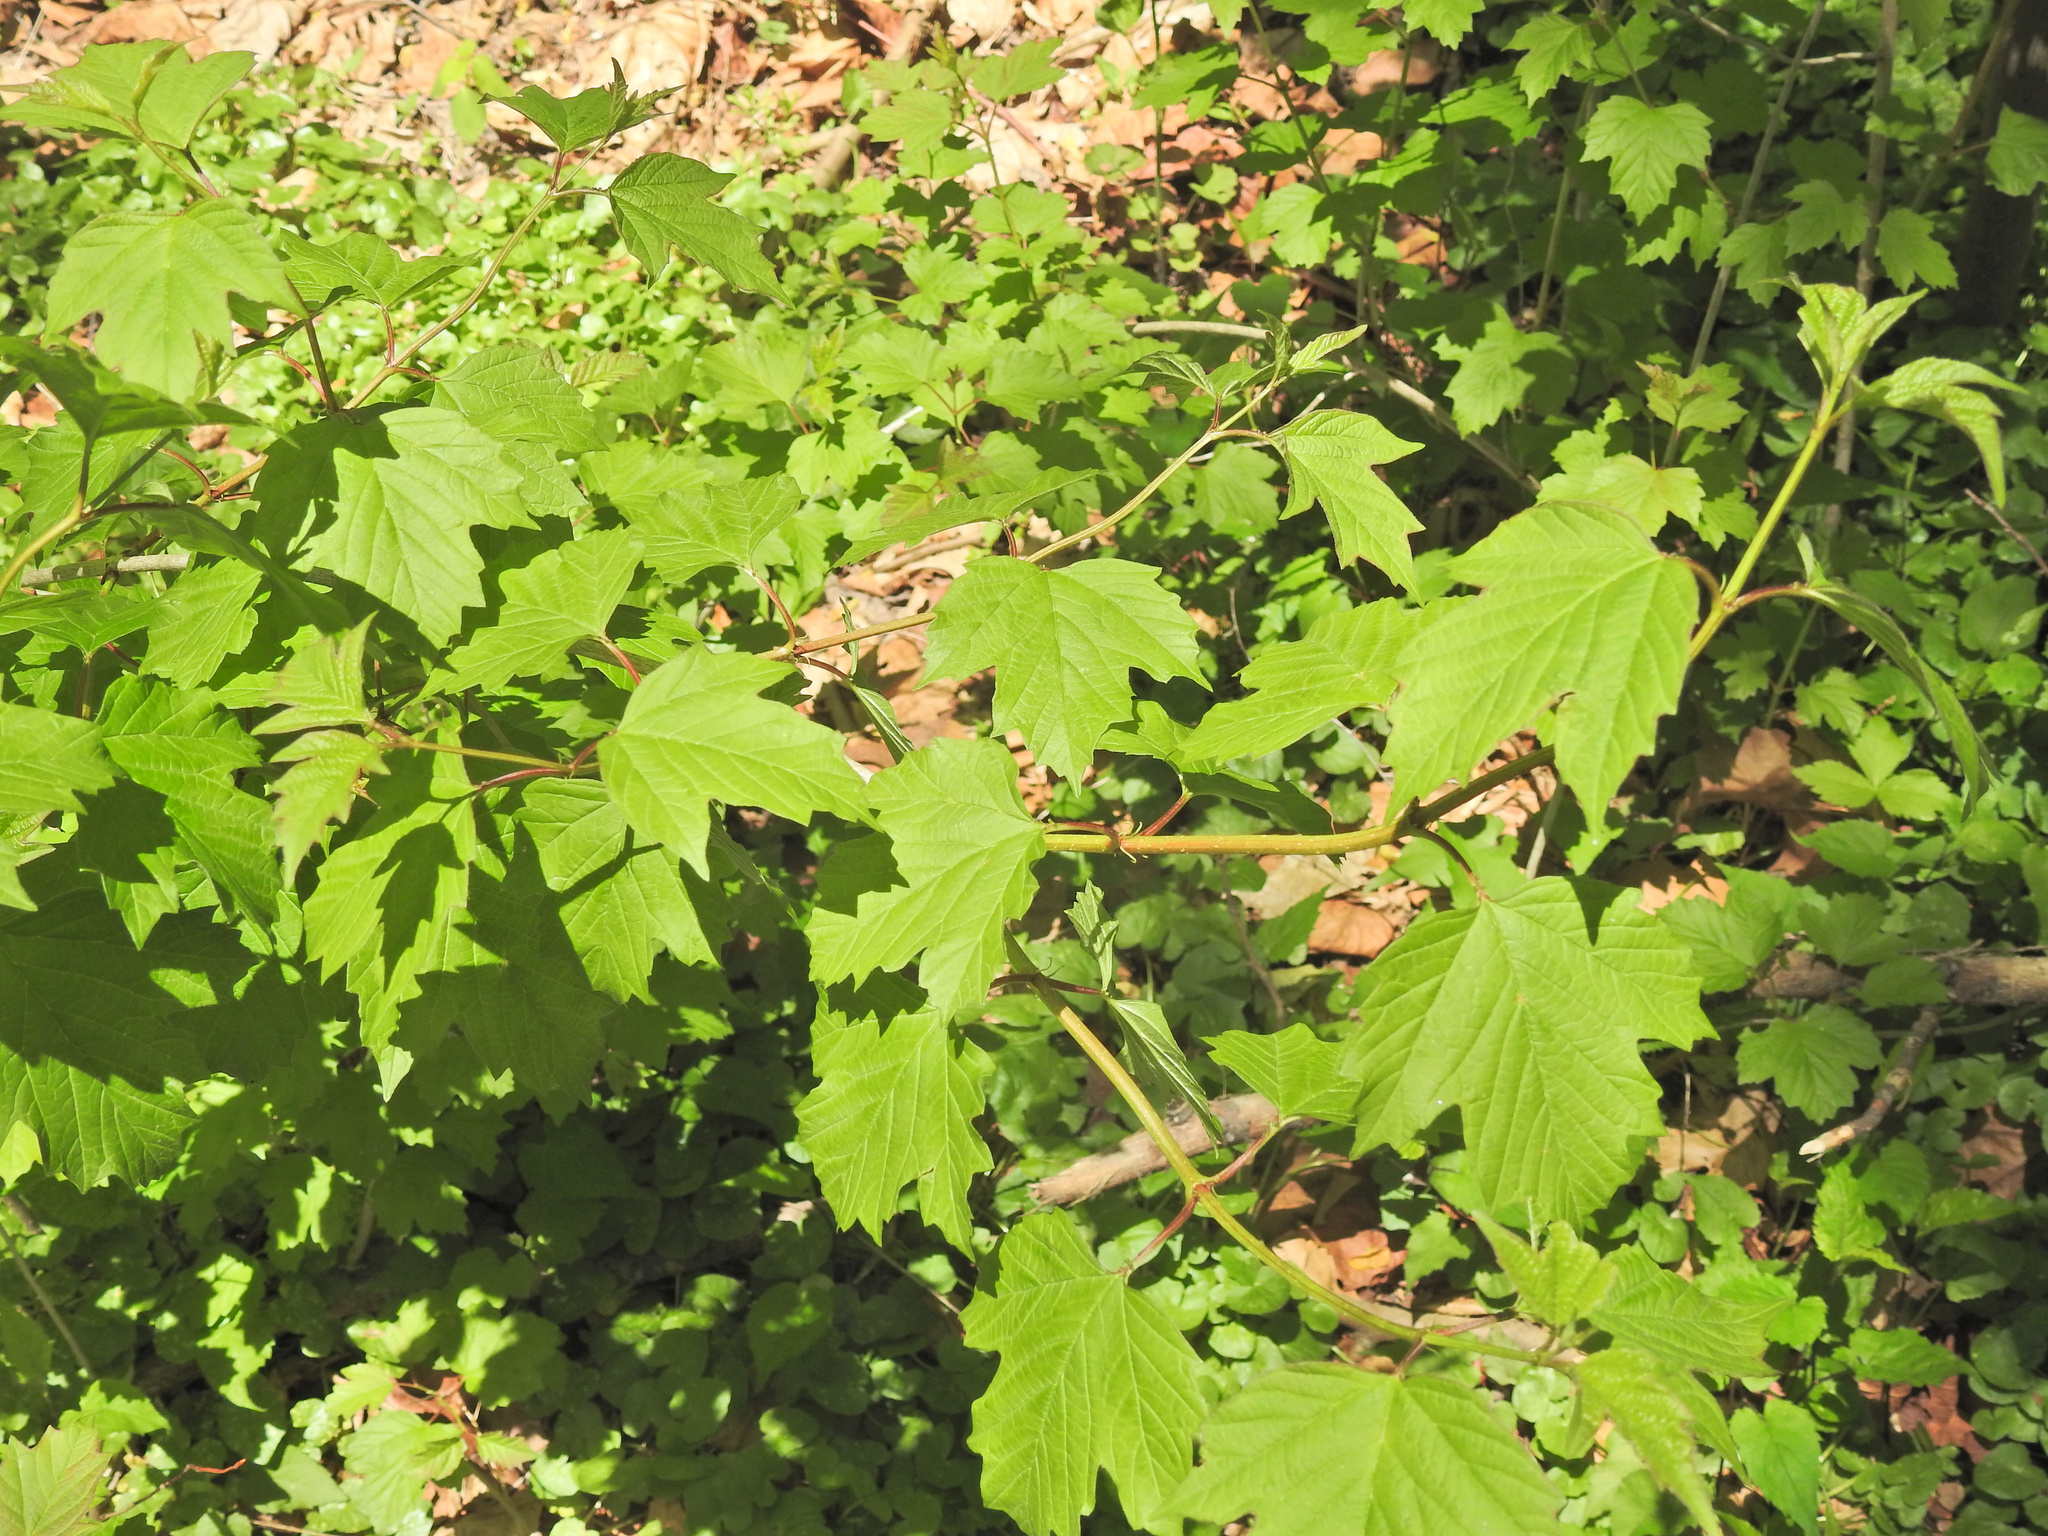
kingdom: Plantae
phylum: Tracheophyta
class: Magnoliopsida
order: Dipsacales
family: Viburnaceae
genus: Viburnum
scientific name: Viburnum opulus
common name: Guelder-rose
